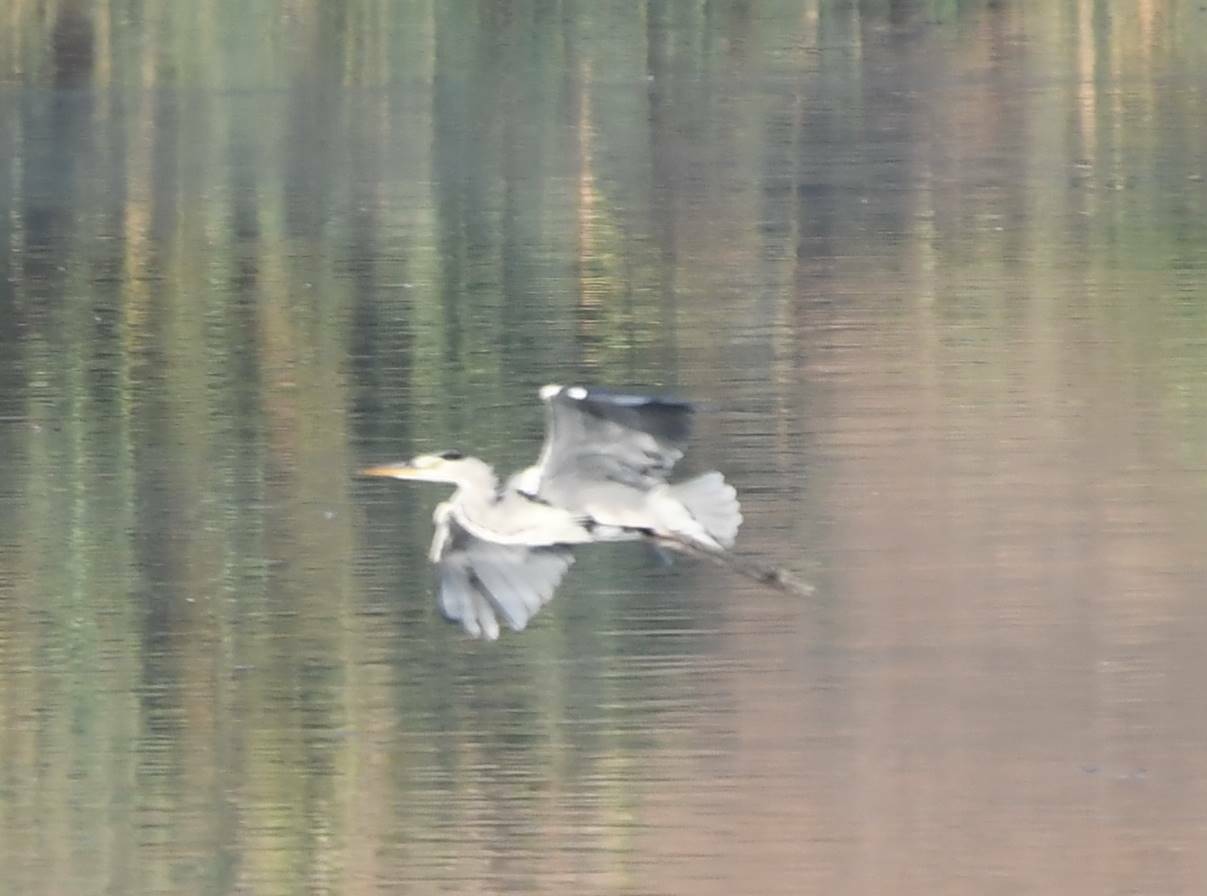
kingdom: Animalia
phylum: Chordata
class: Aves
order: Pelecaniformes
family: Ardeidae
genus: Ardea
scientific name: Ardea cinerea
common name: Grey heron
